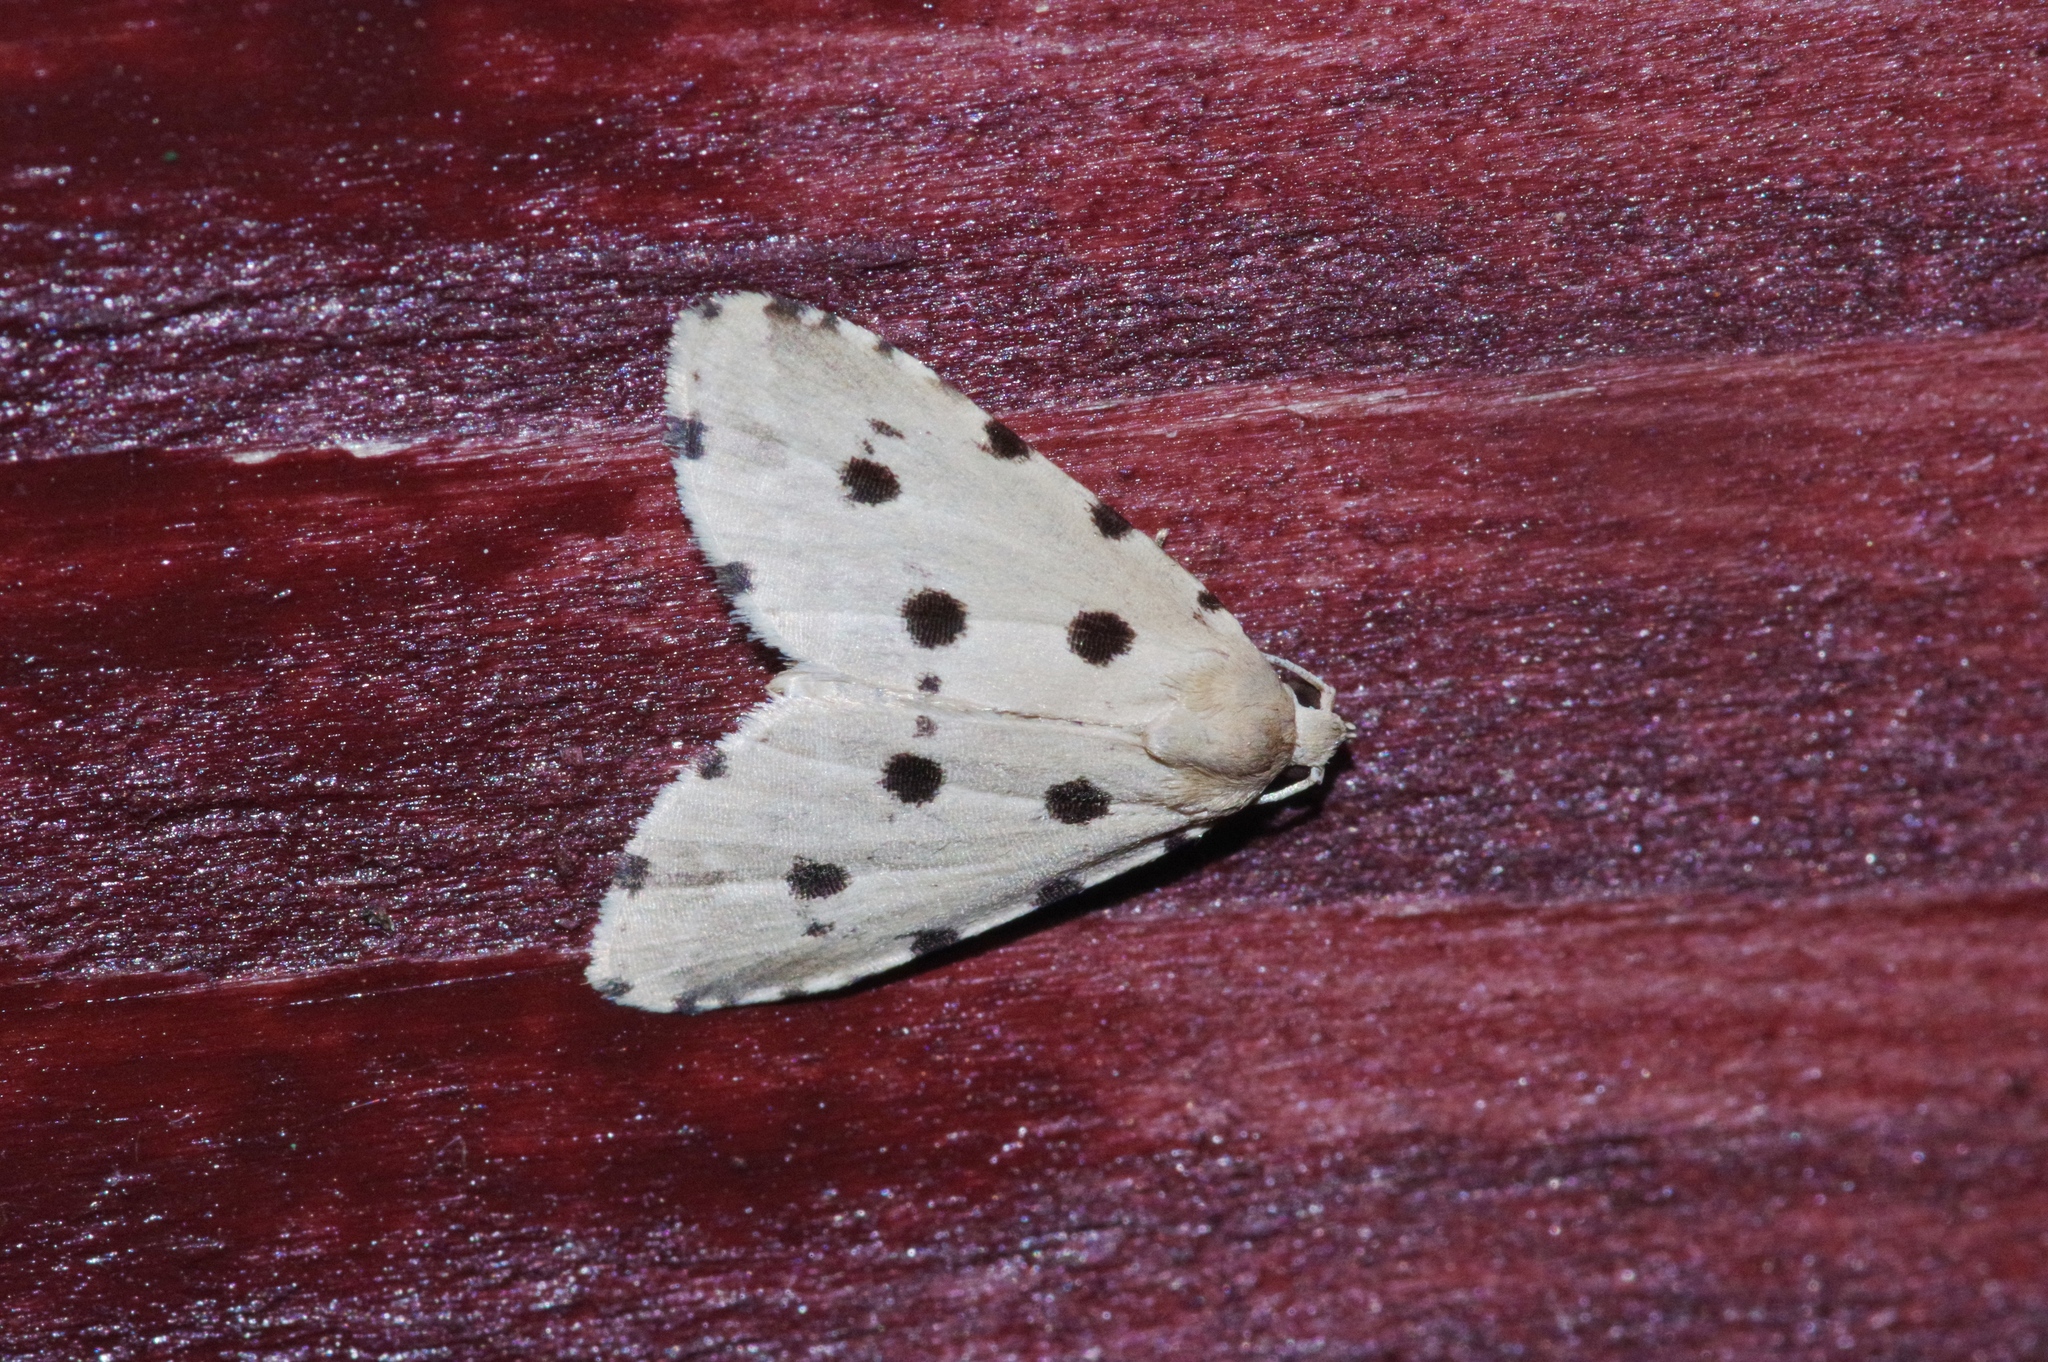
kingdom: Animalia
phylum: Arthropoda
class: Insecta
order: Lepidoptera
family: Noctuidae
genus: Metaemene
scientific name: Metaemene atrigutta
